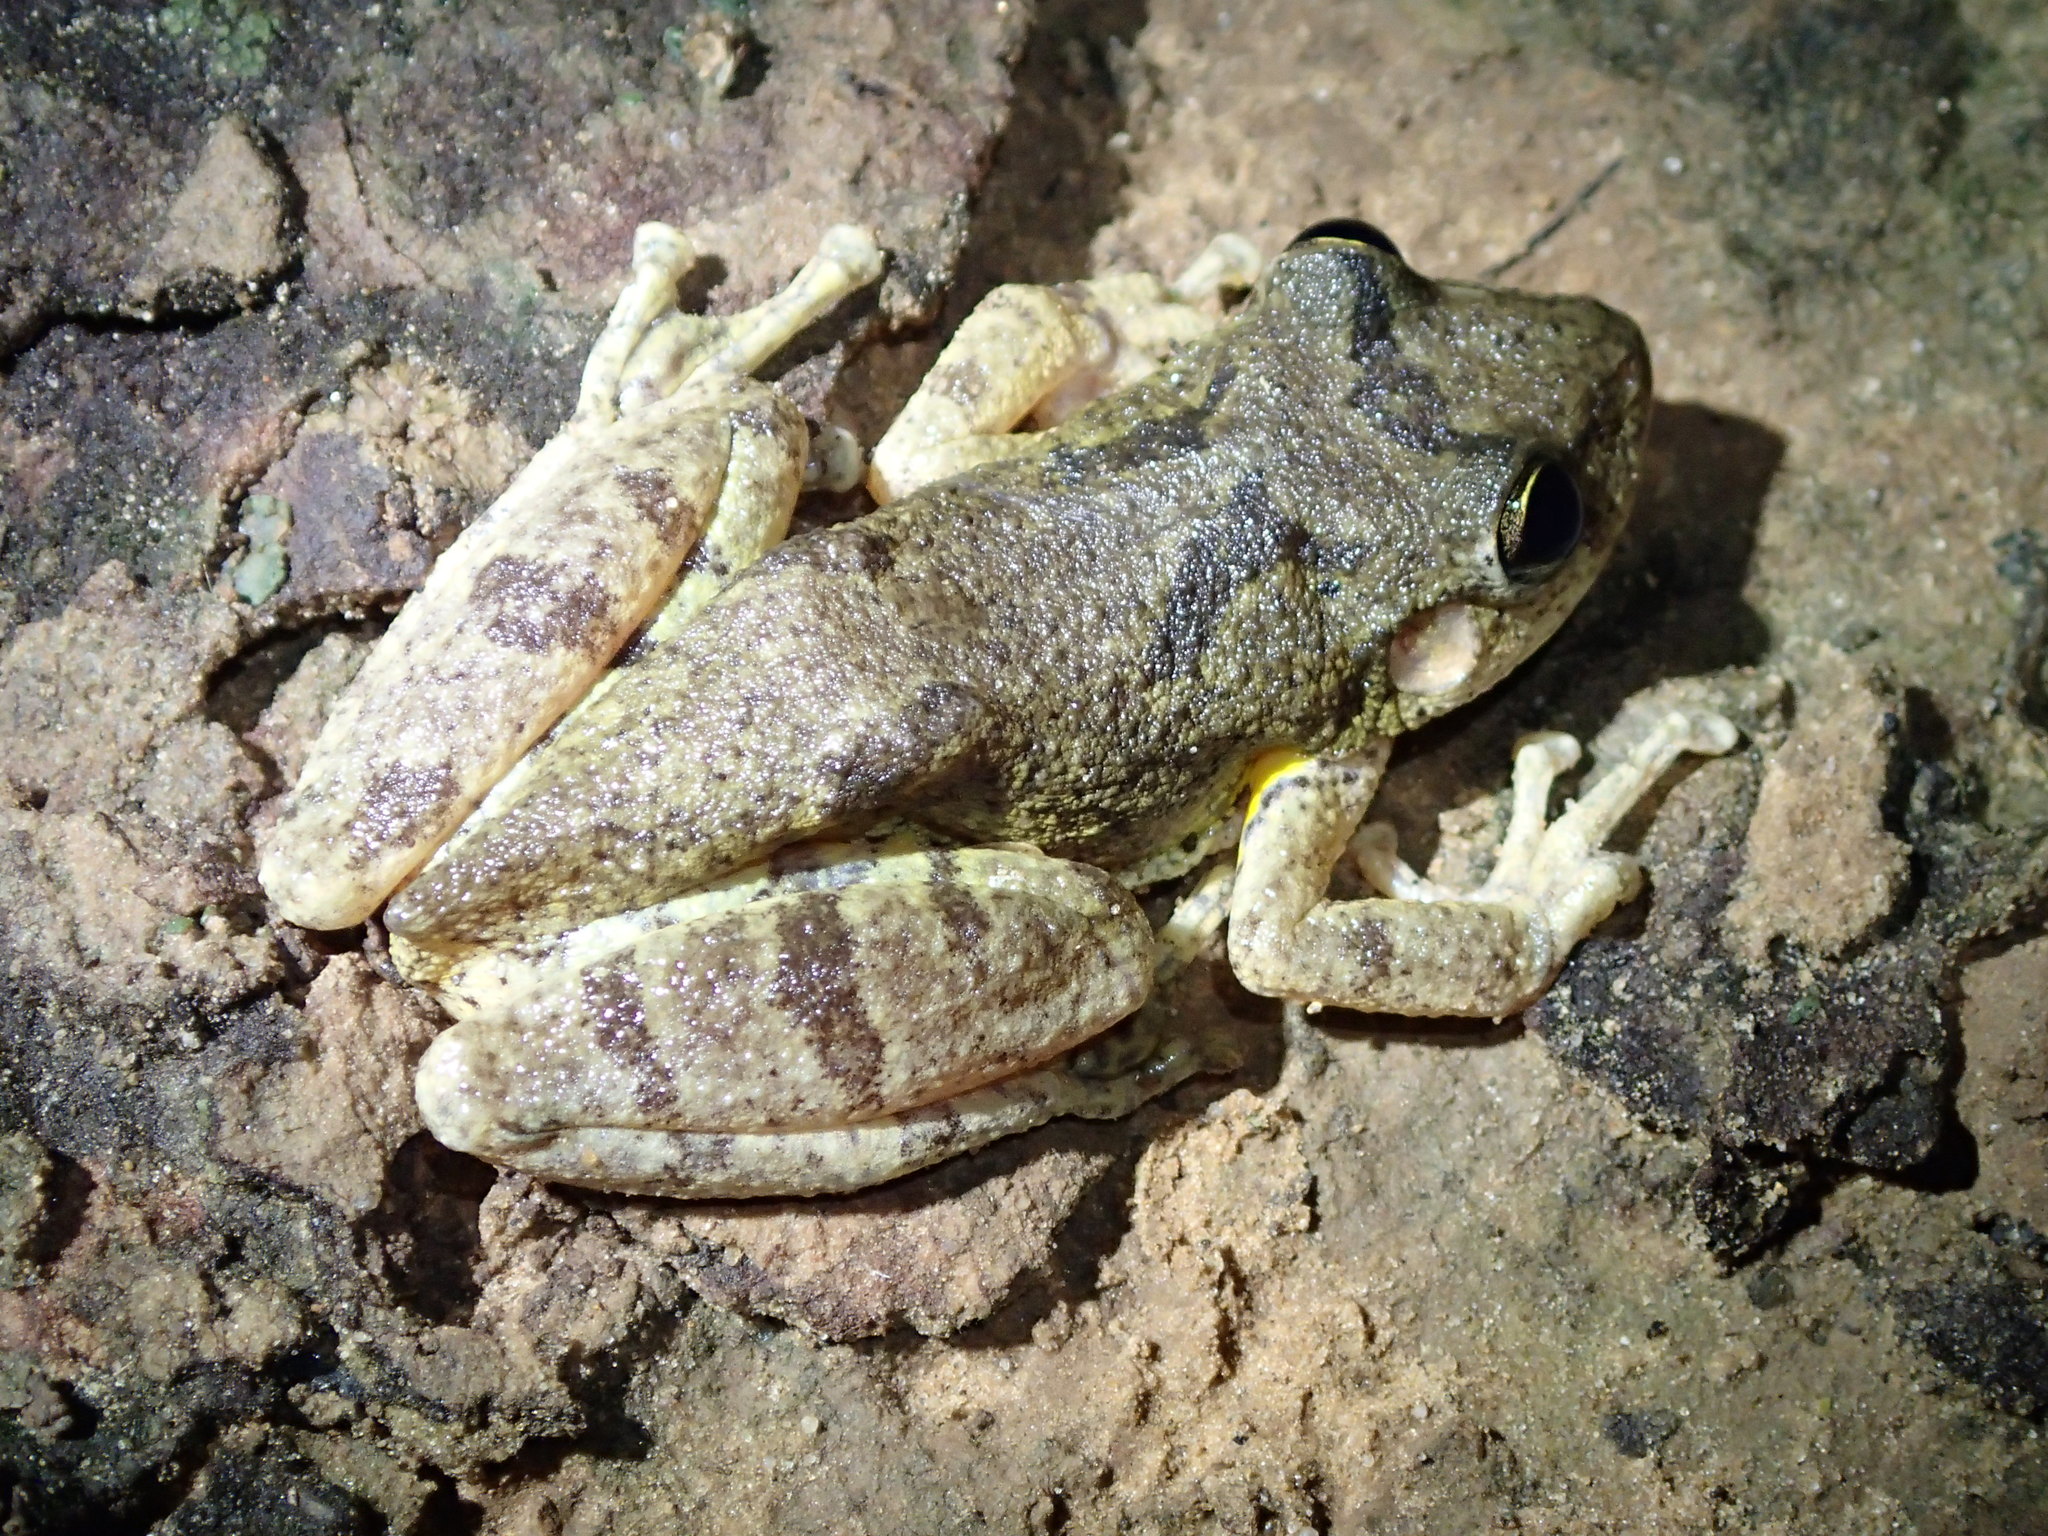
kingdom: Animalia
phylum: Chordata
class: Amphibia
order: Anura
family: Hylidae
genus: Scinax
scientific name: Scinax fuscovarius
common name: Fuscous-blotched treefrog
